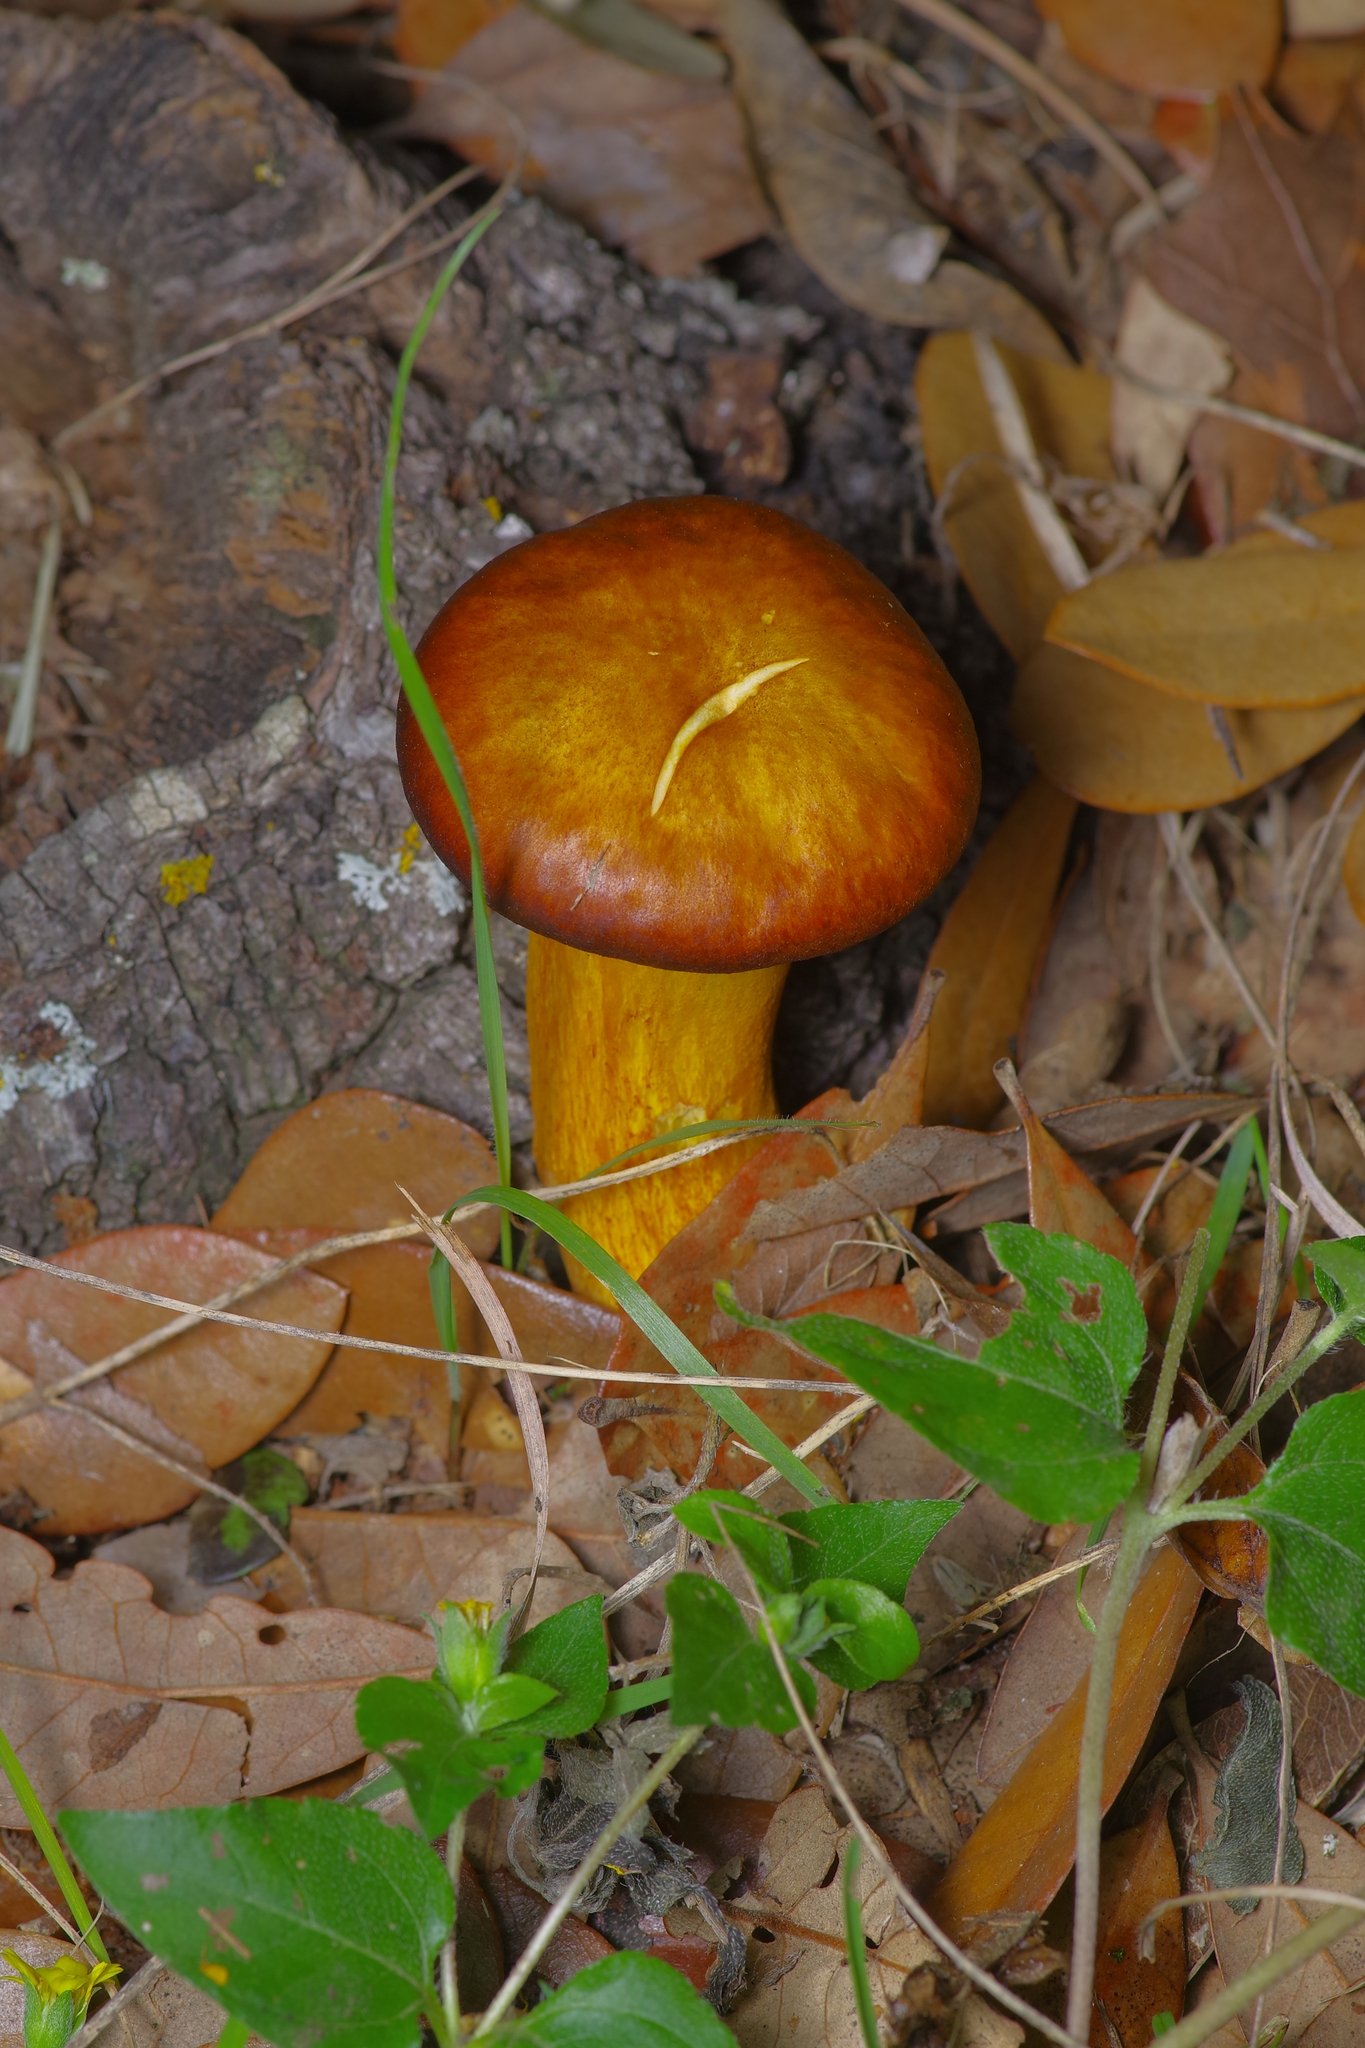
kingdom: Fungi
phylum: Basidiomycota
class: Agaricomycetes
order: Agaricales
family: Omphalotaceae
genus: Omphalotus
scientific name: Omphalotus subilludens
